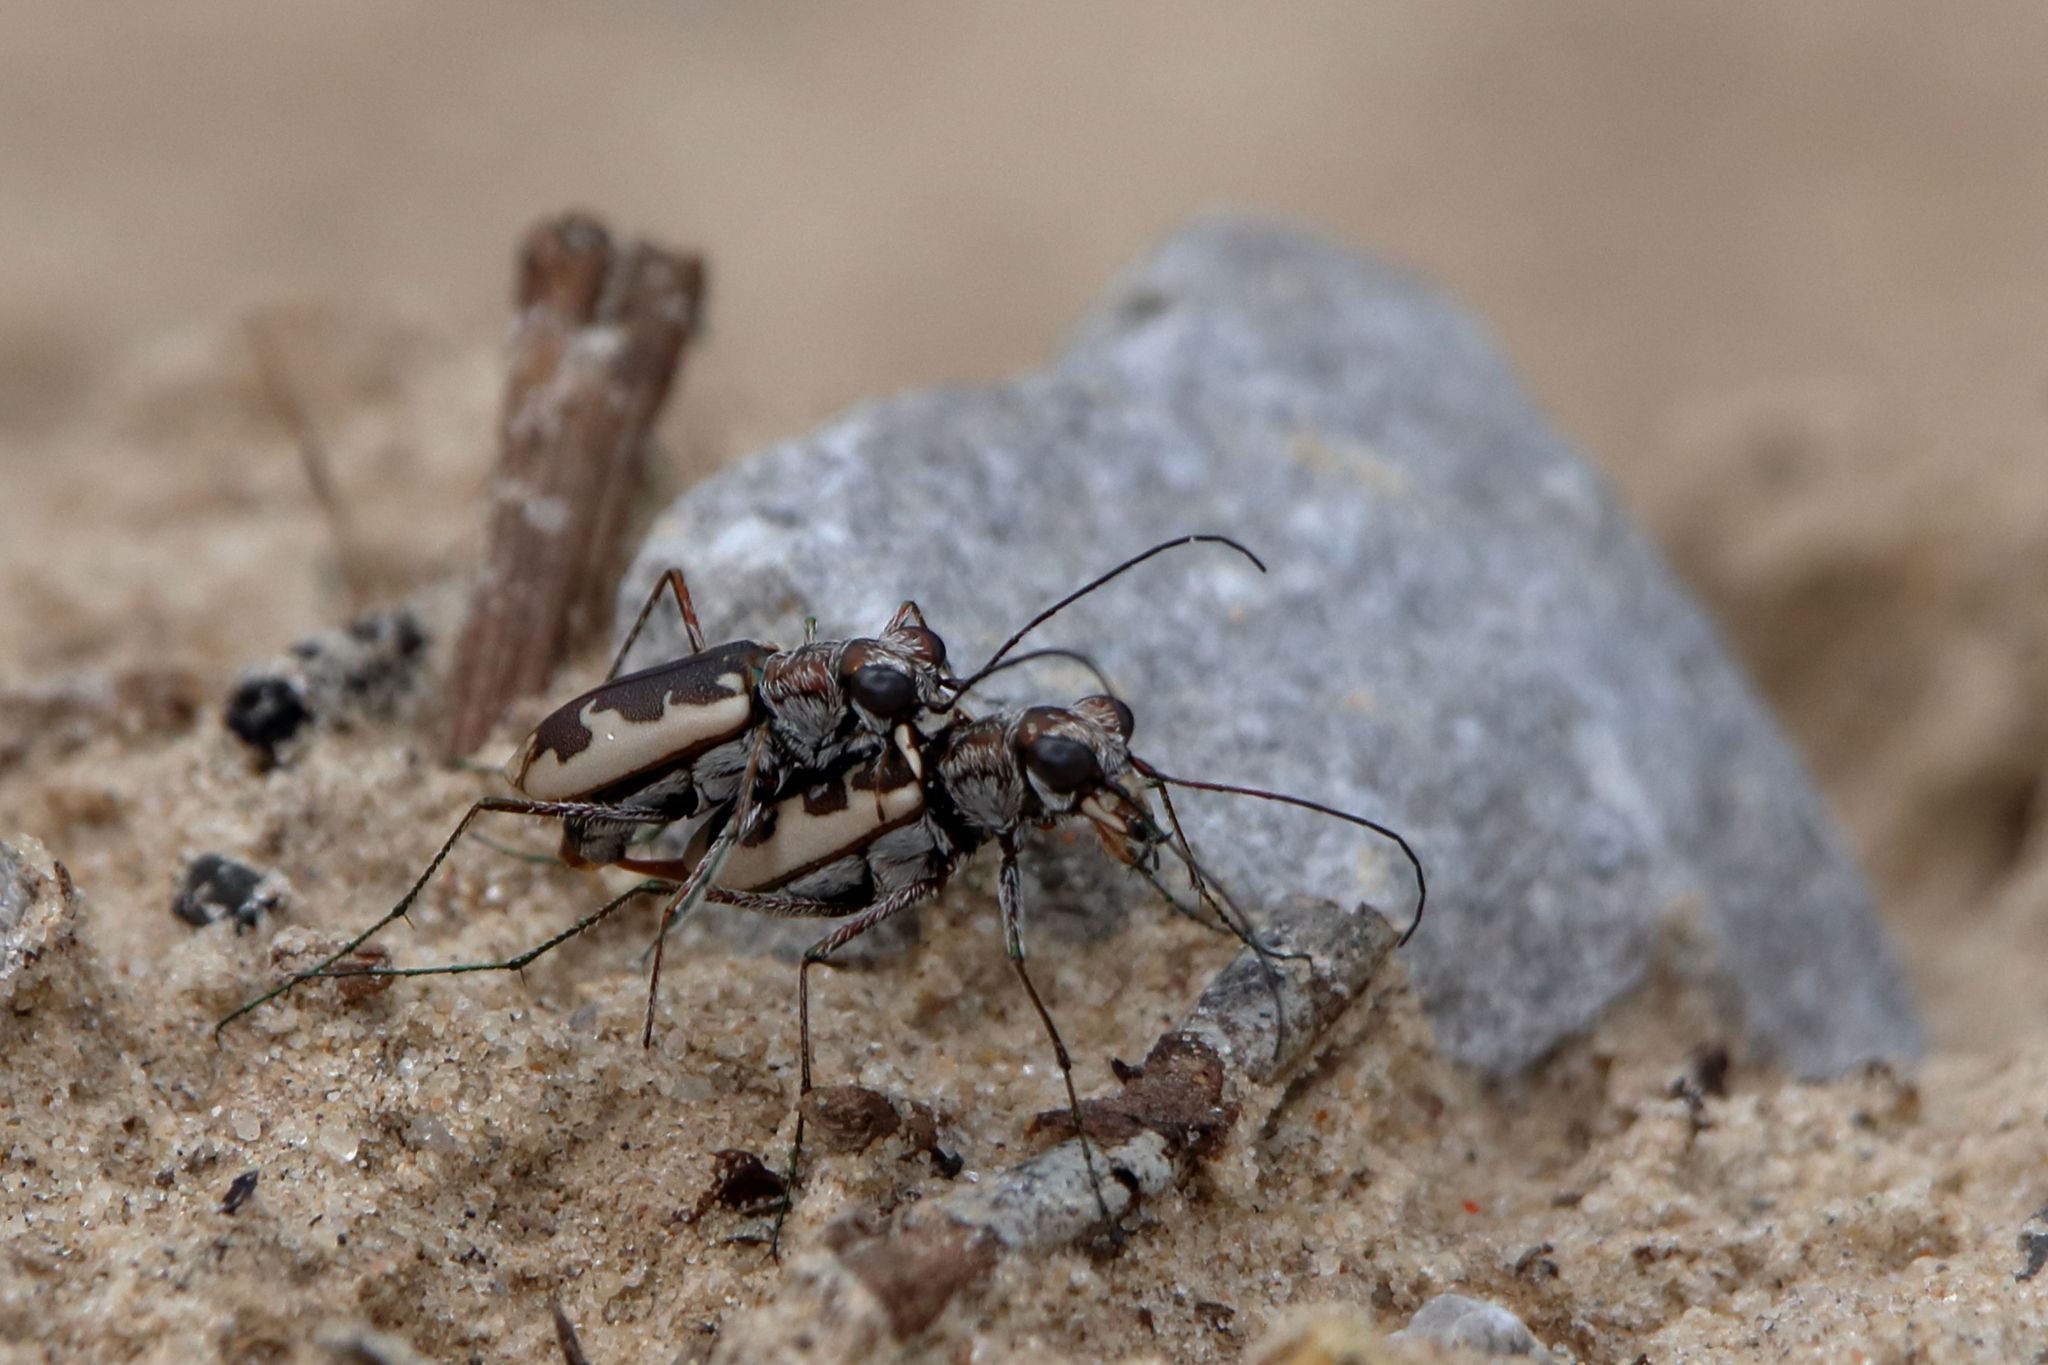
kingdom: Animalia
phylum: Arthropoda
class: Insecta
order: Coleoptera
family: Carabidae
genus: Ellipsoptera
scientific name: Ellipsoptera wapleri
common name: White-sand tiger beetle
